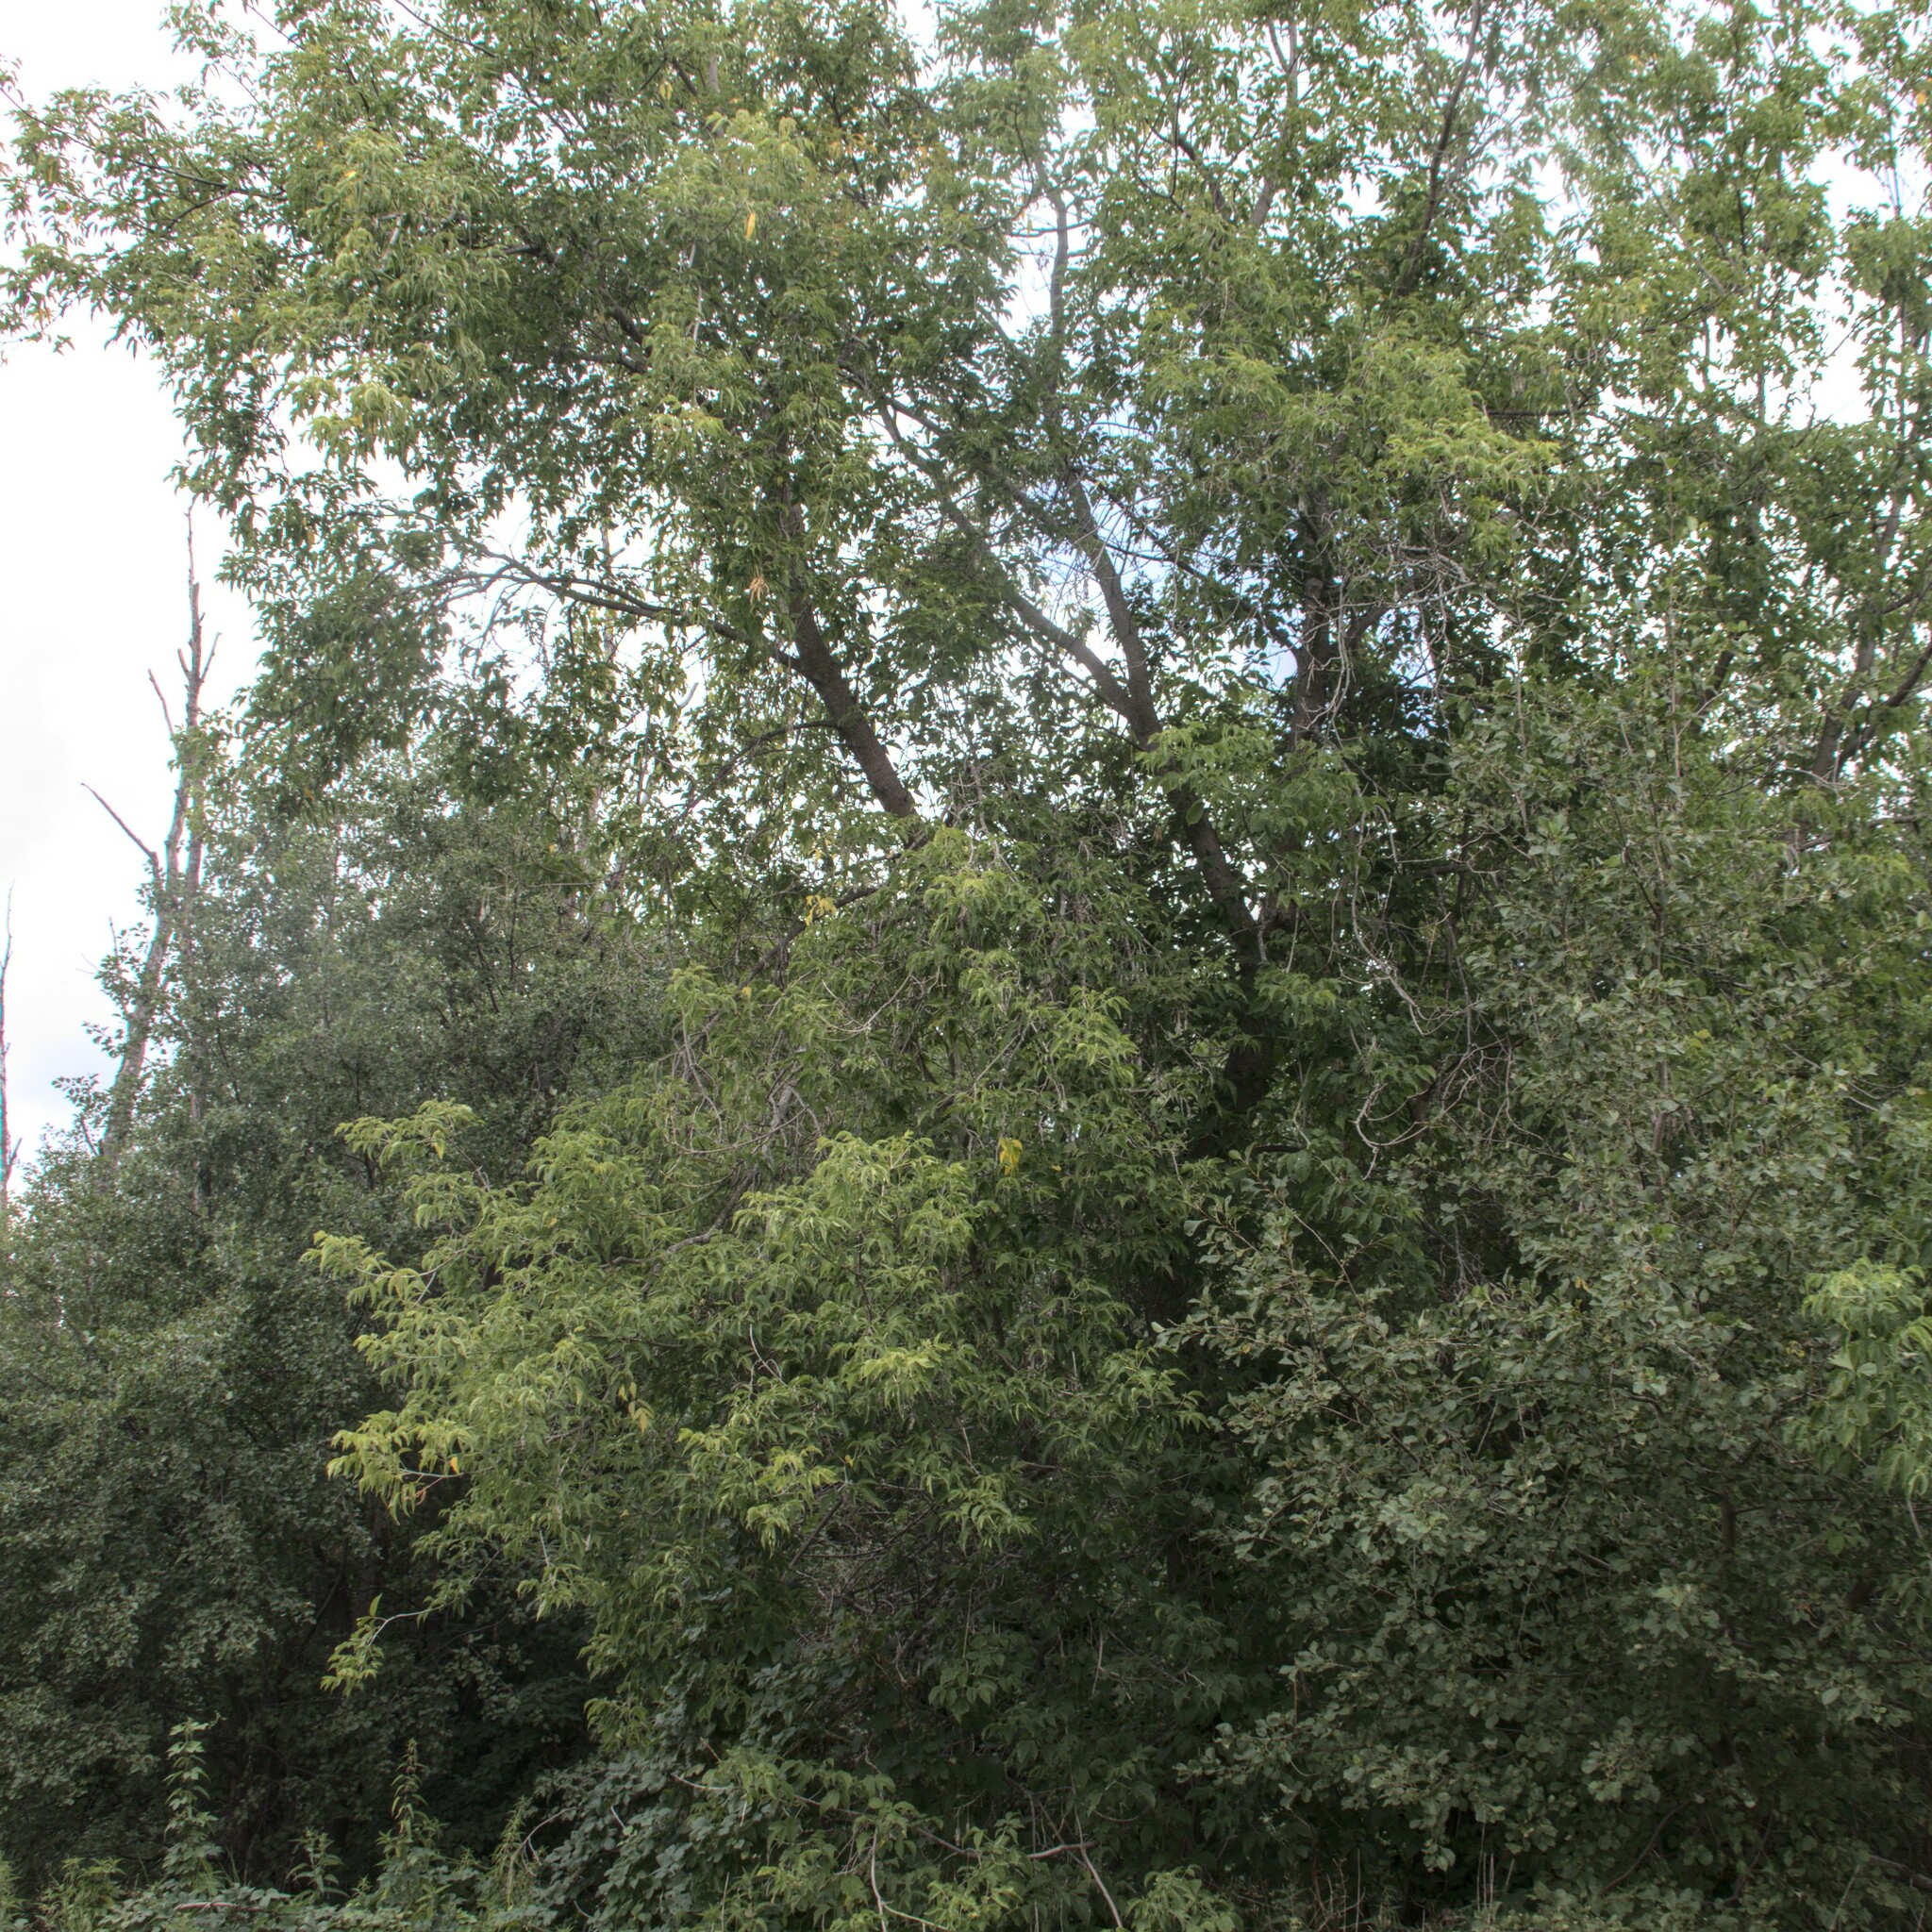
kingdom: Plantae
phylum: Tracheophyta
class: Magnoliopsida
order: Sapindales
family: Sapindaceae
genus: Acer
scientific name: Acer negundo
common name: Ashleaf maple
